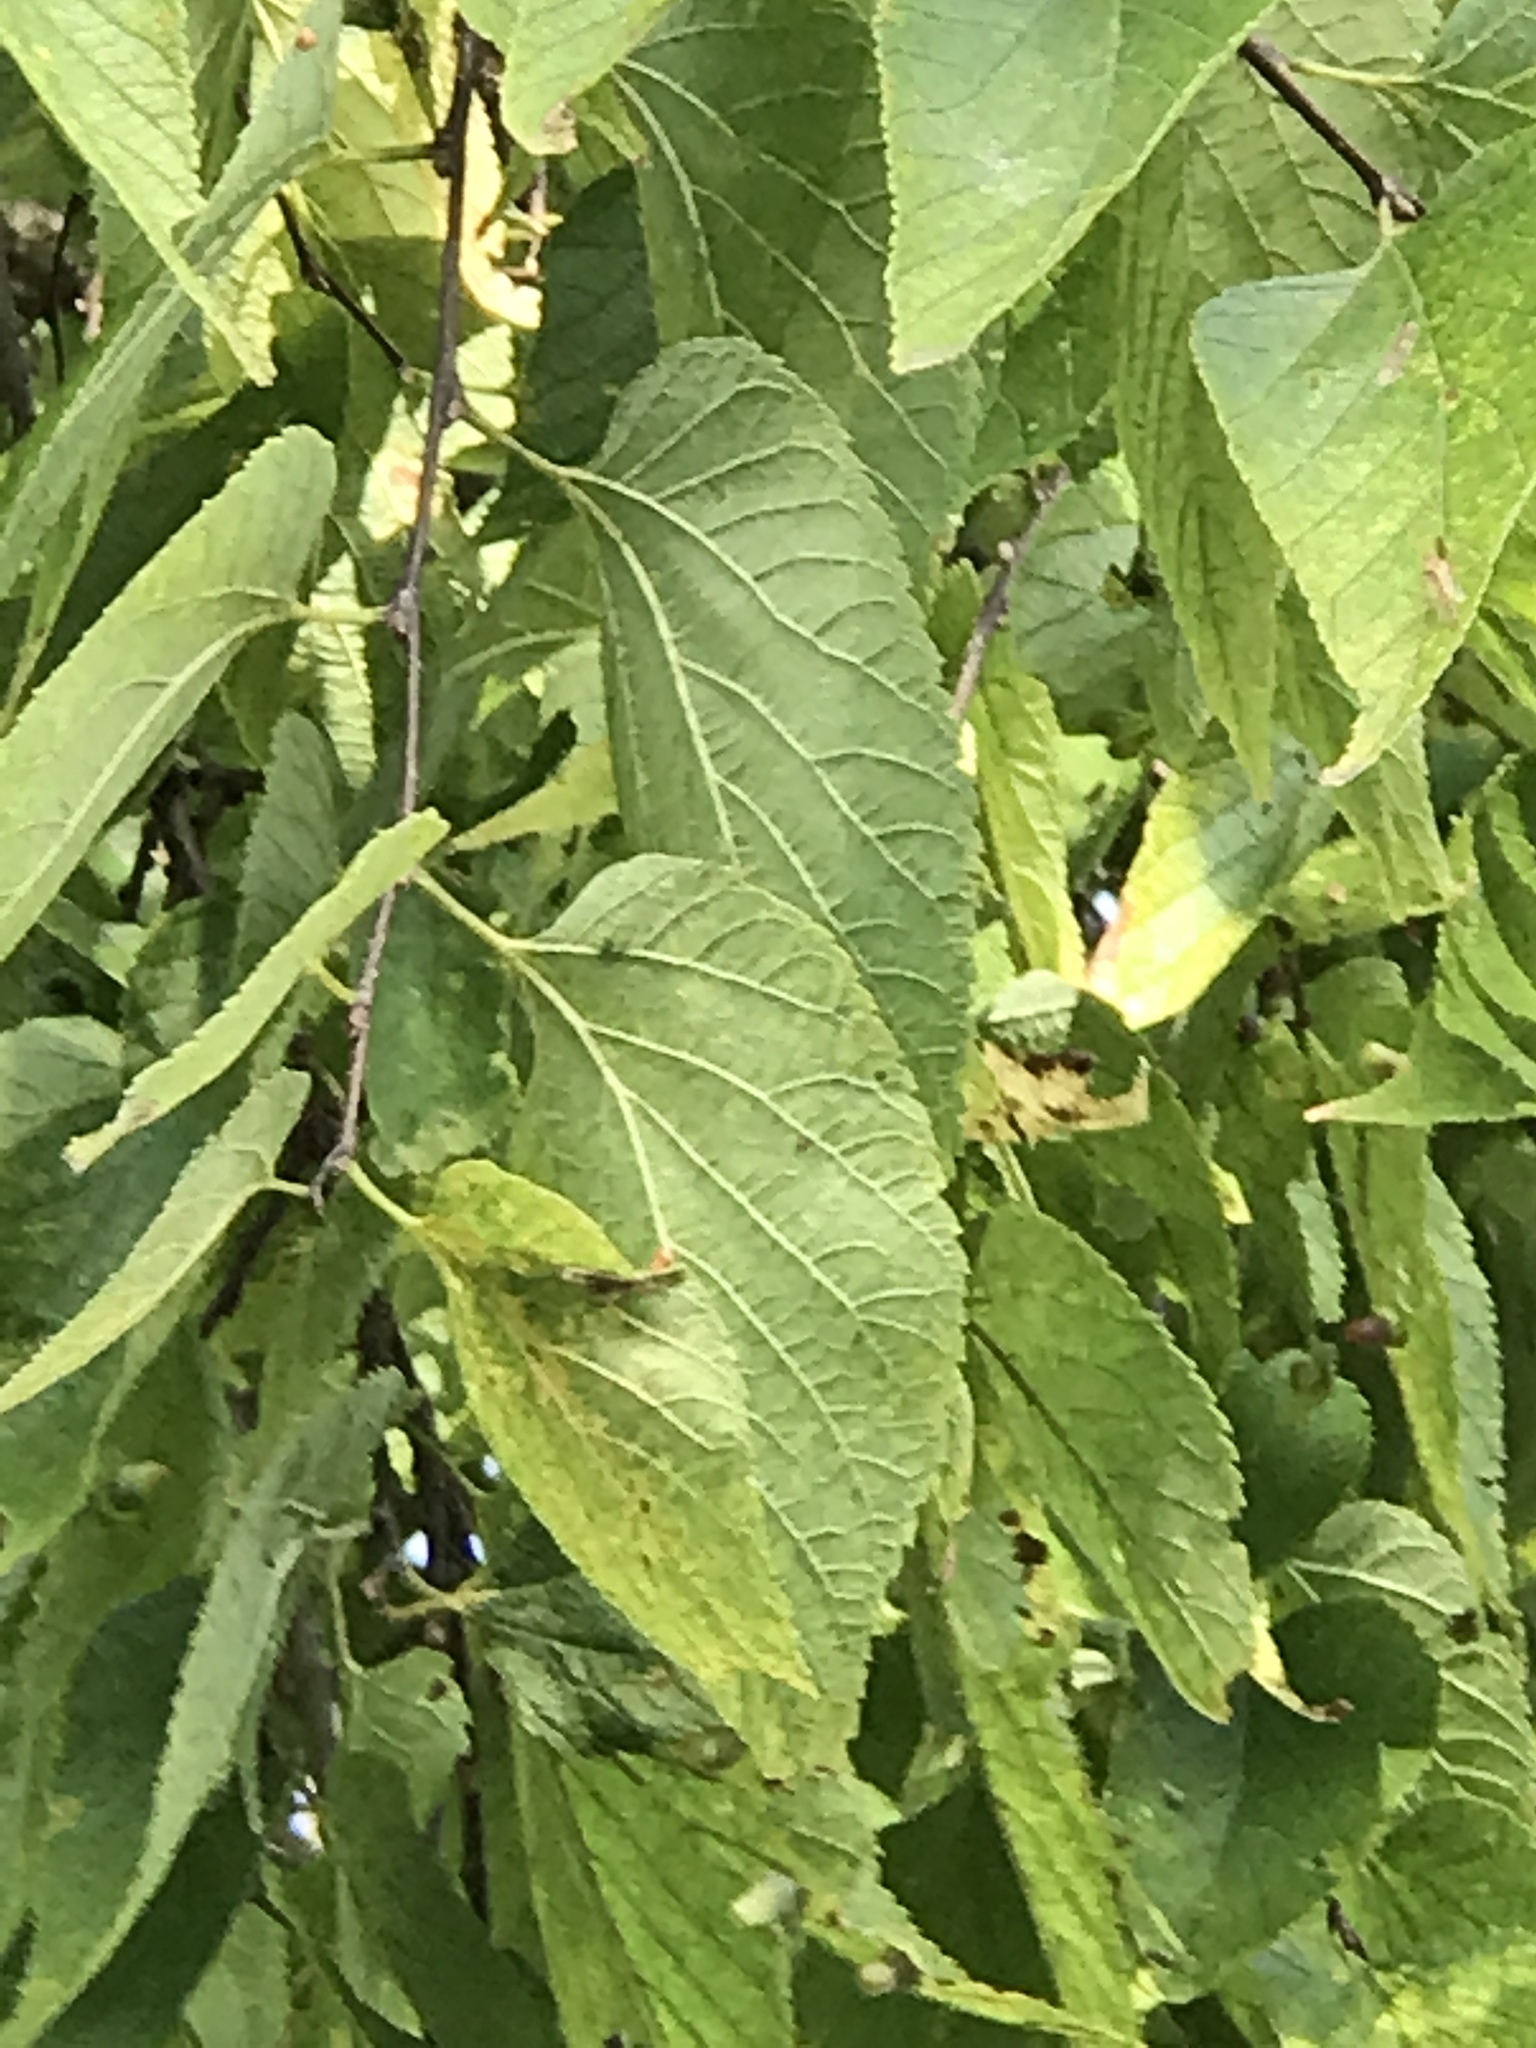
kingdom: Plantae
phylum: Tracheophyta
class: Magnoliopsida
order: Rosales
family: Cannabaceae
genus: Celtis
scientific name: Celtis occidentalis
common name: Common hackberry
